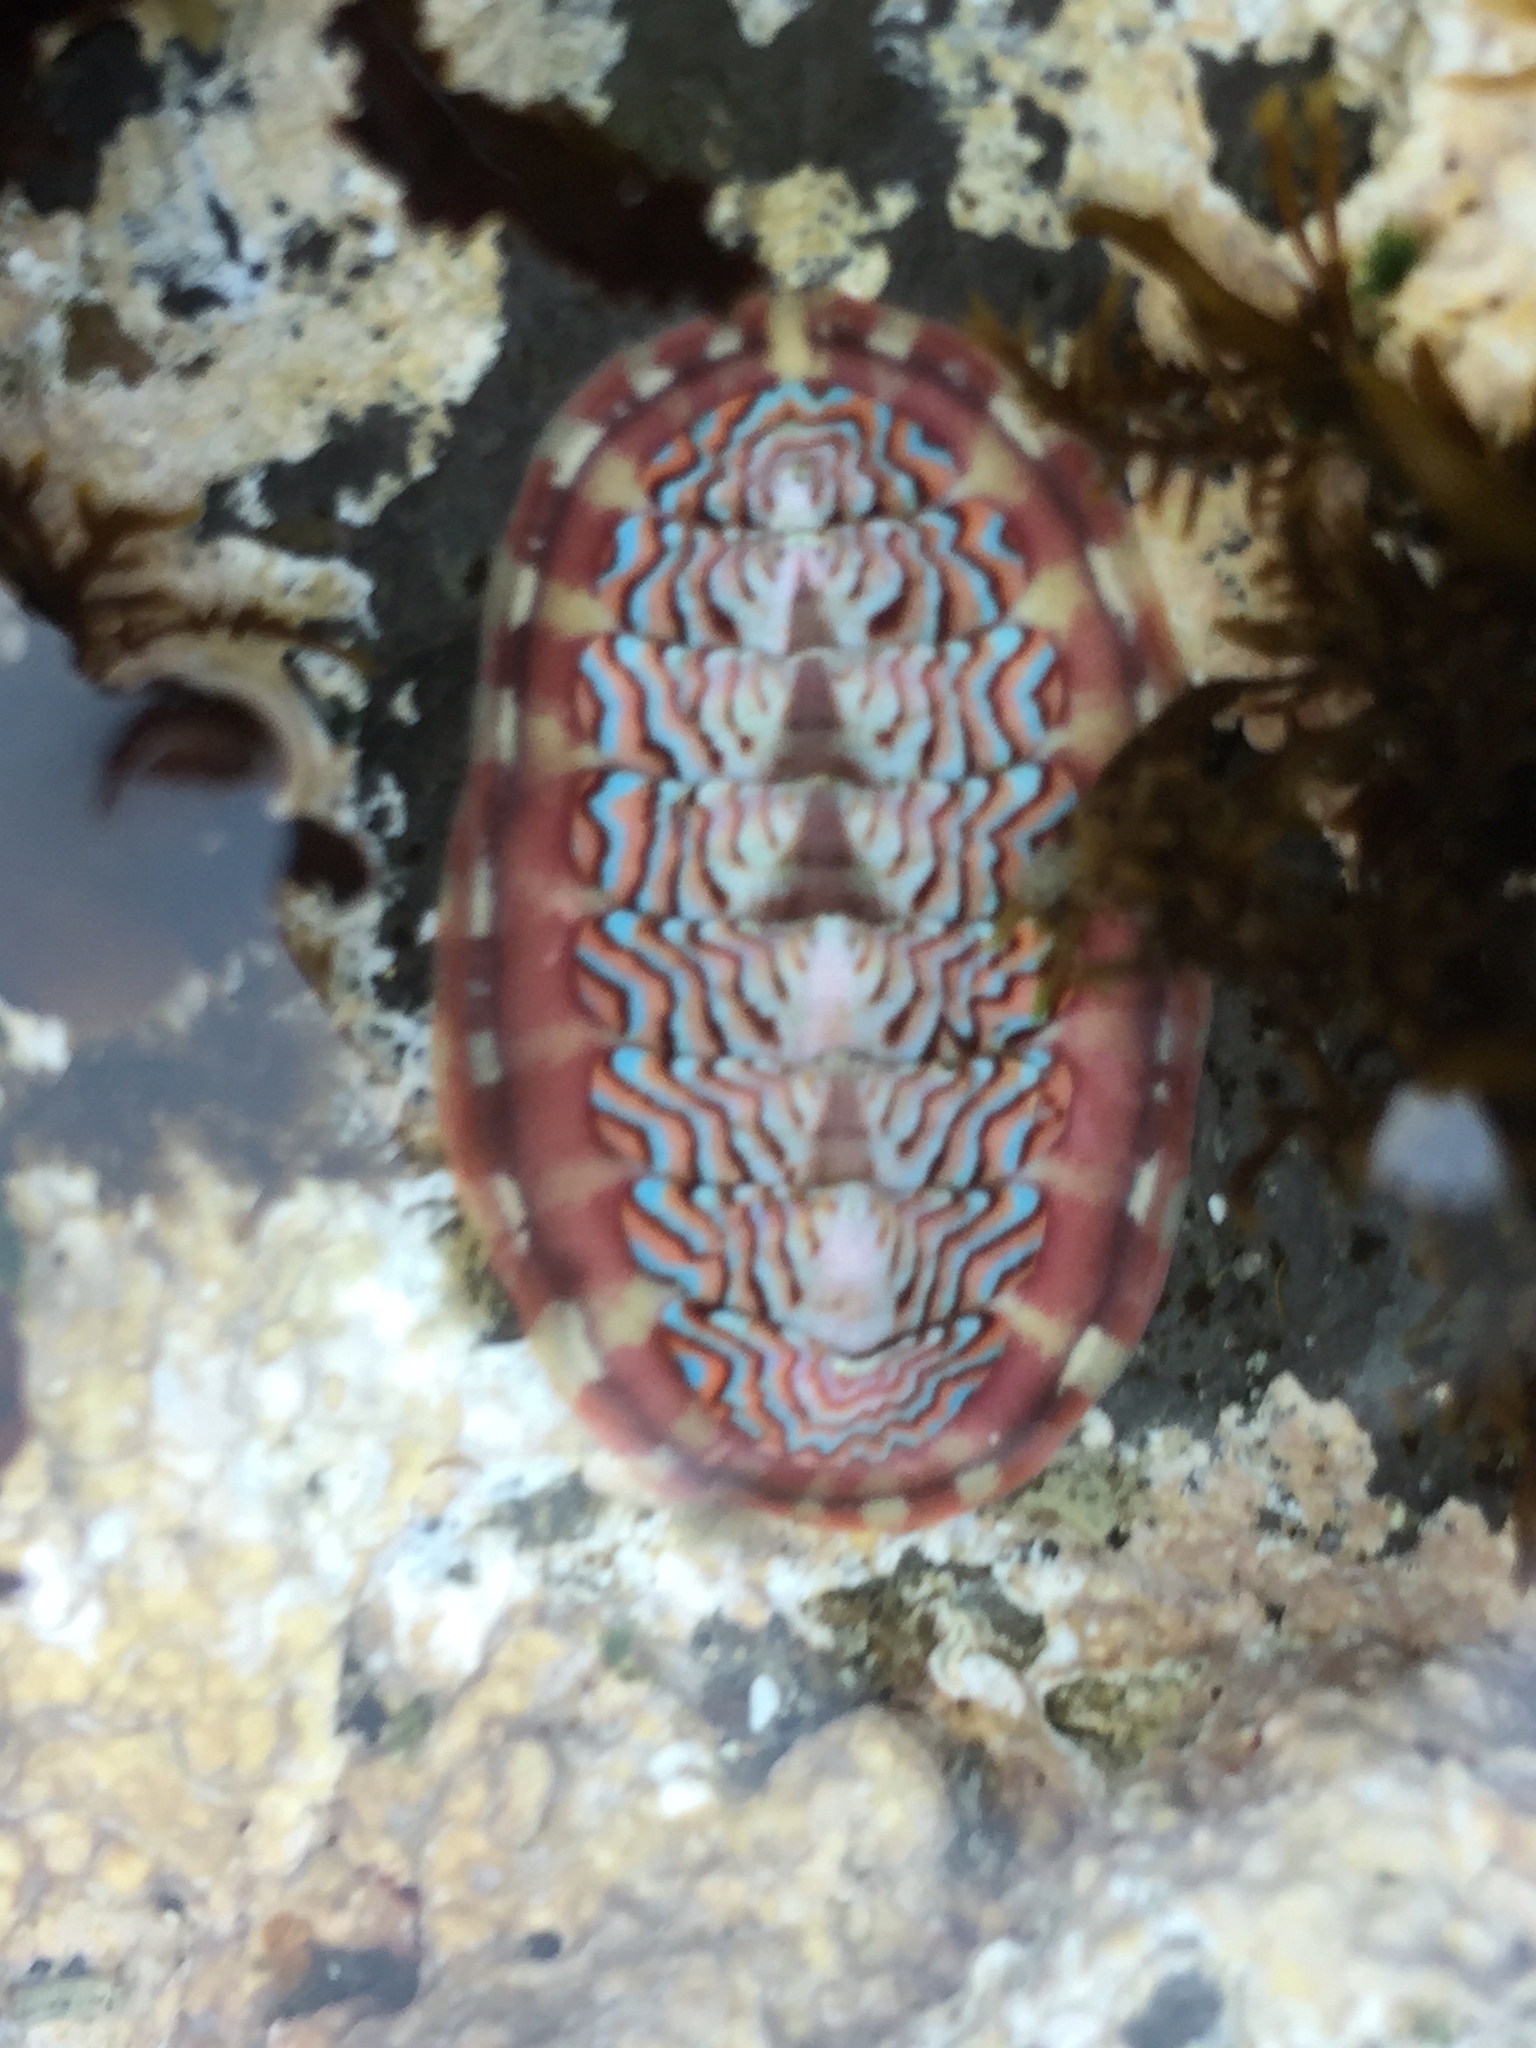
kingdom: Animalia
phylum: Mollusca
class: Polyplacophora
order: Chitonida
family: Tonicellidae
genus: Tonicella
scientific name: Tonicella lokii
